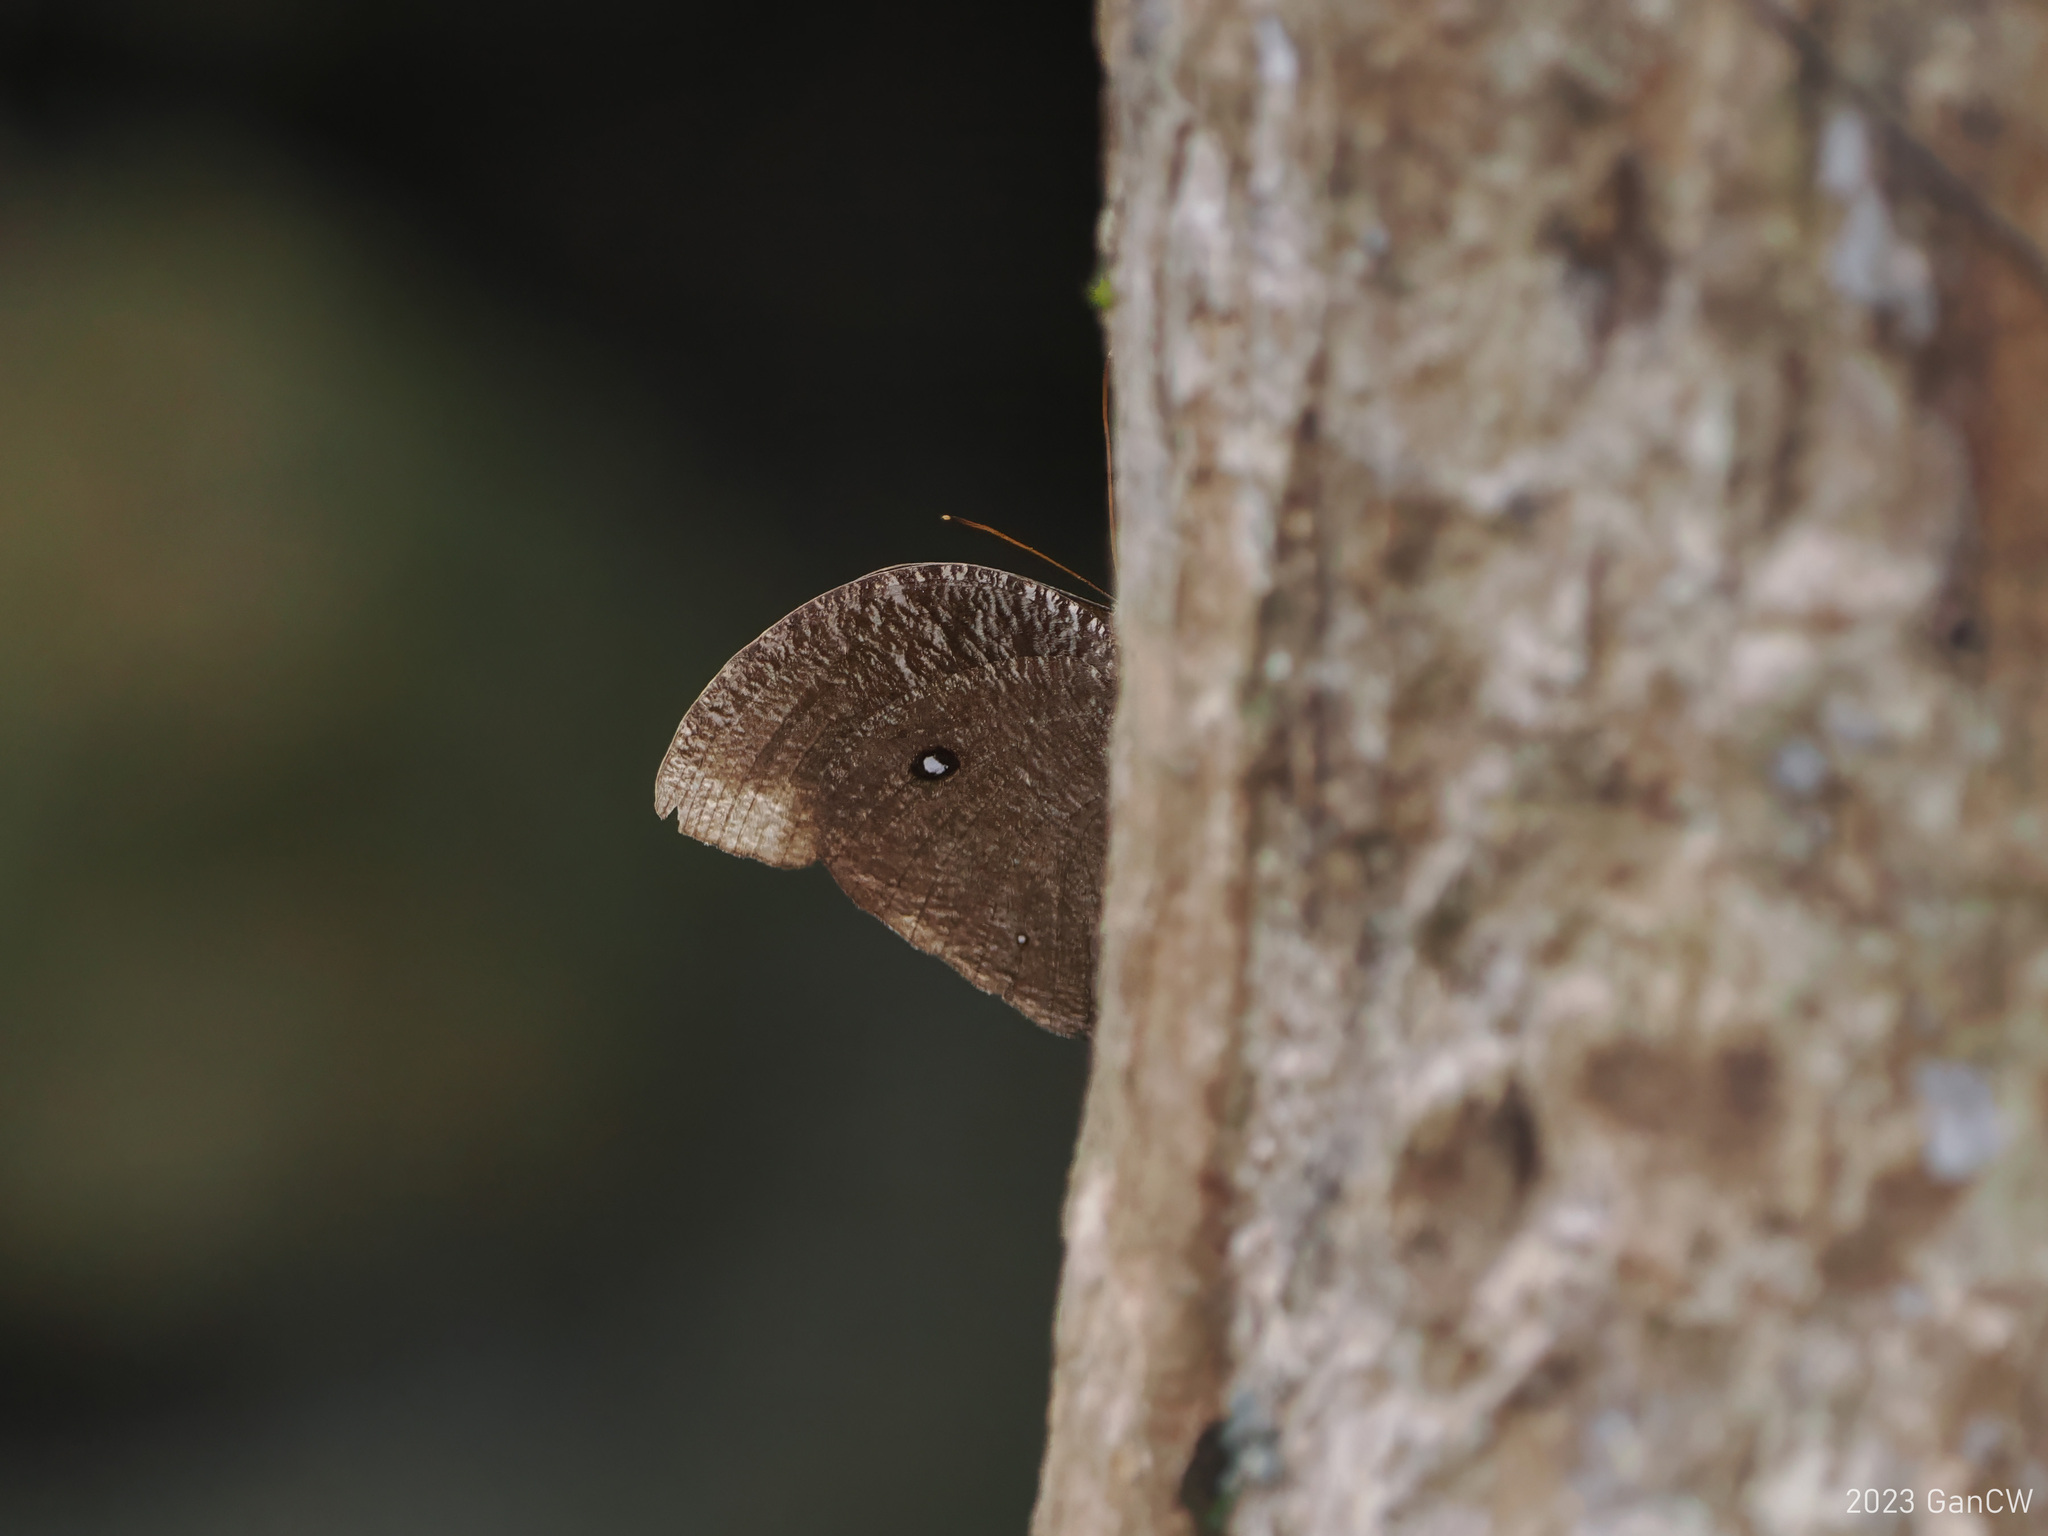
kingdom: Animalia
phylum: Arthropoda
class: Insecta
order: Lepidoptera
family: Nymphalidae
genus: Bletogona
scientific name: Bletogona mycalesis
